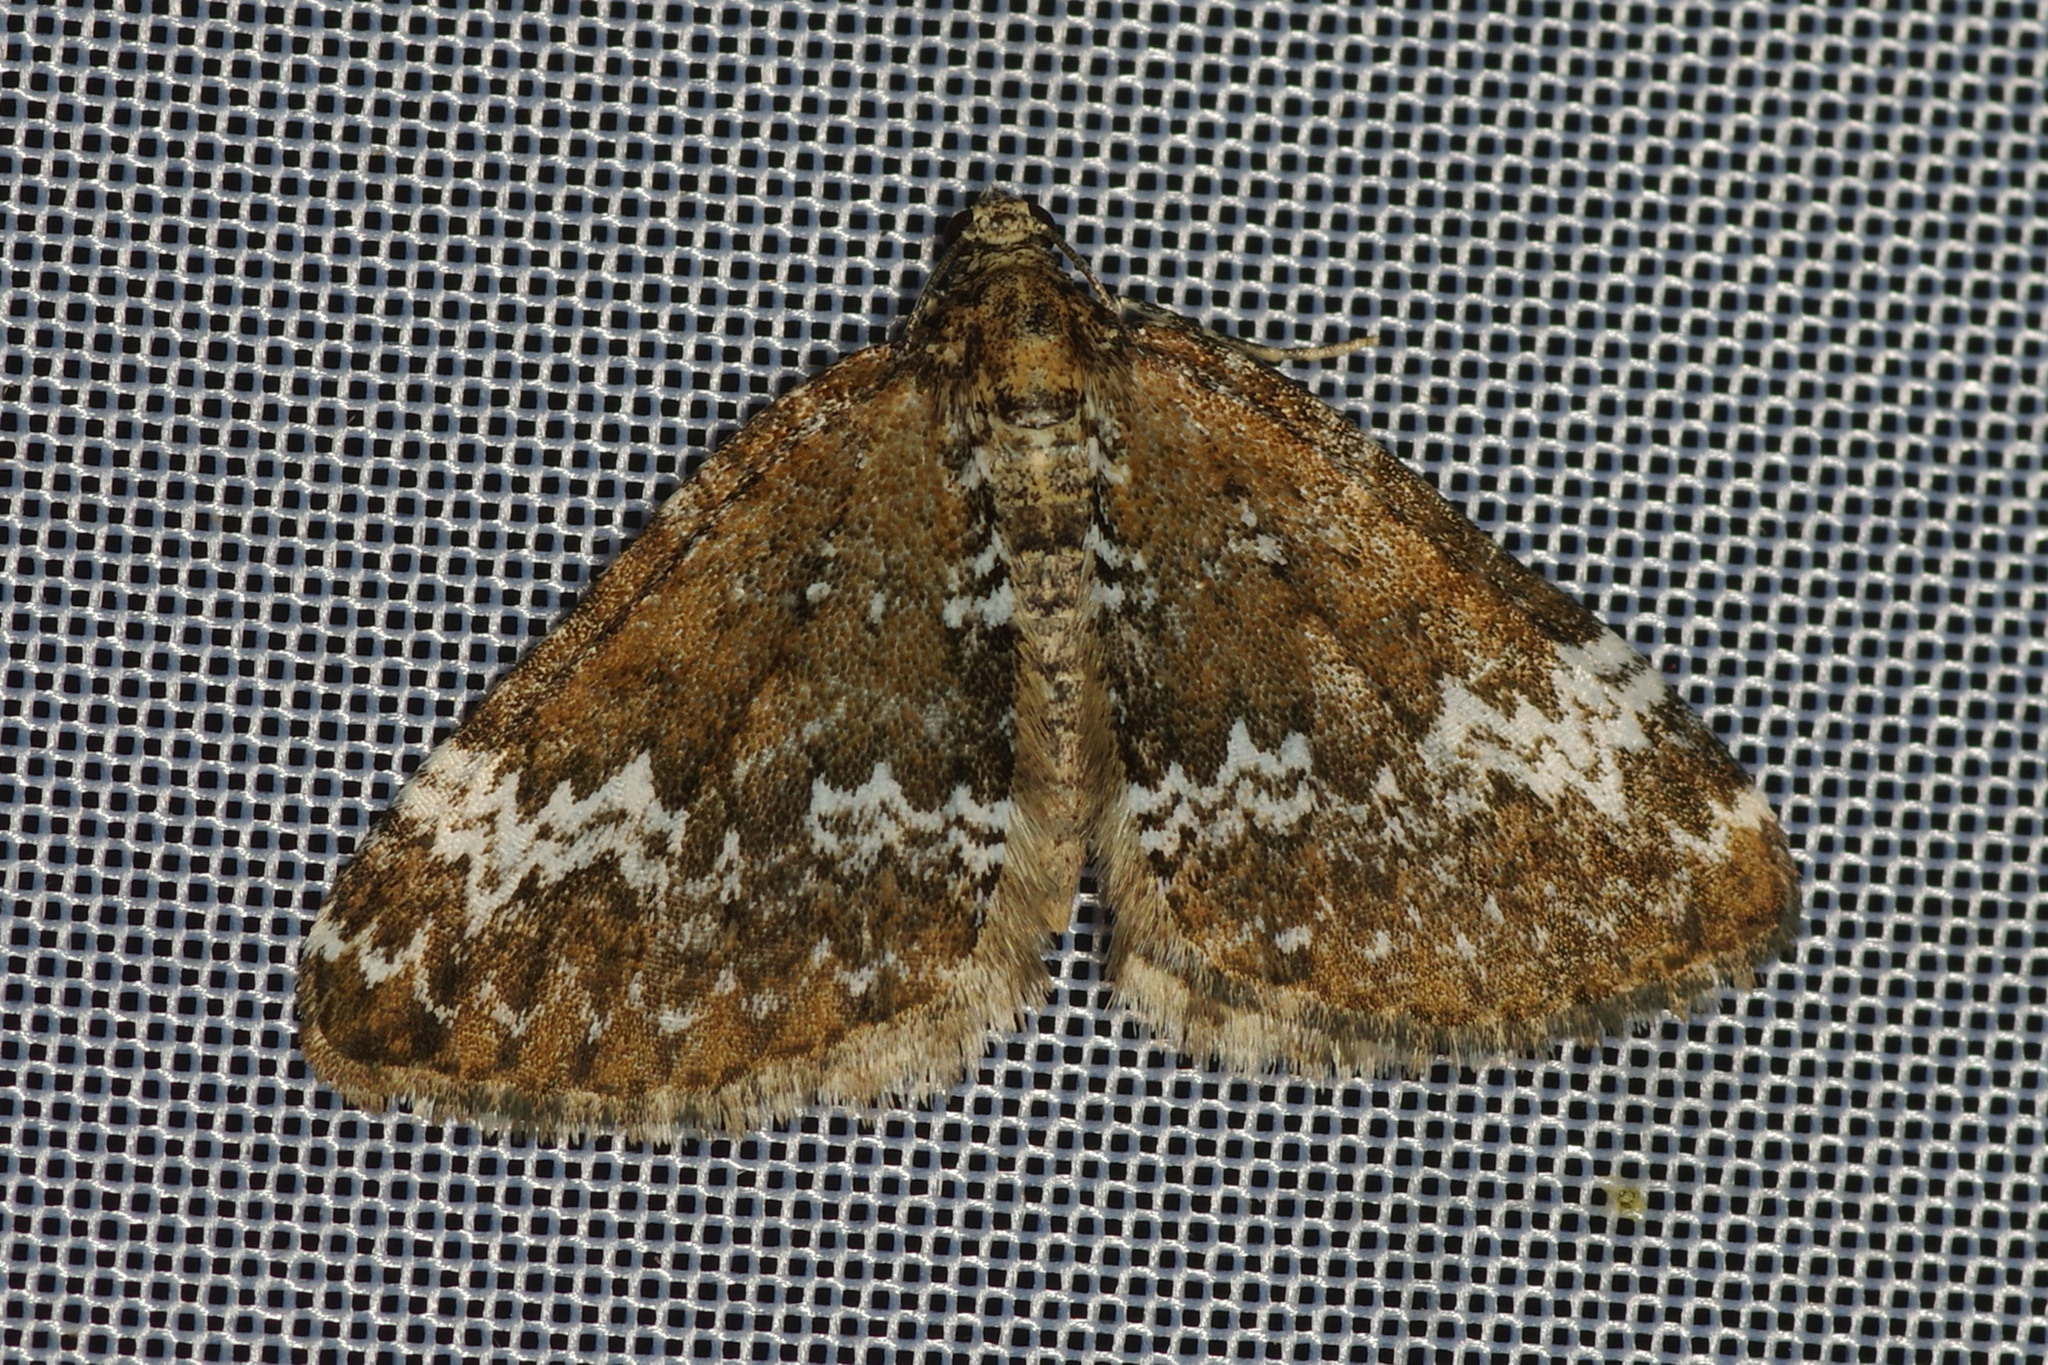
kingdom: Animalia
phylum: Arthropoda
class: Insecta
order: Lepidoptera
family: Geometridae
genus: Perizoma
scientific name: Perizoma alchemillata
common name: Small rivulet
